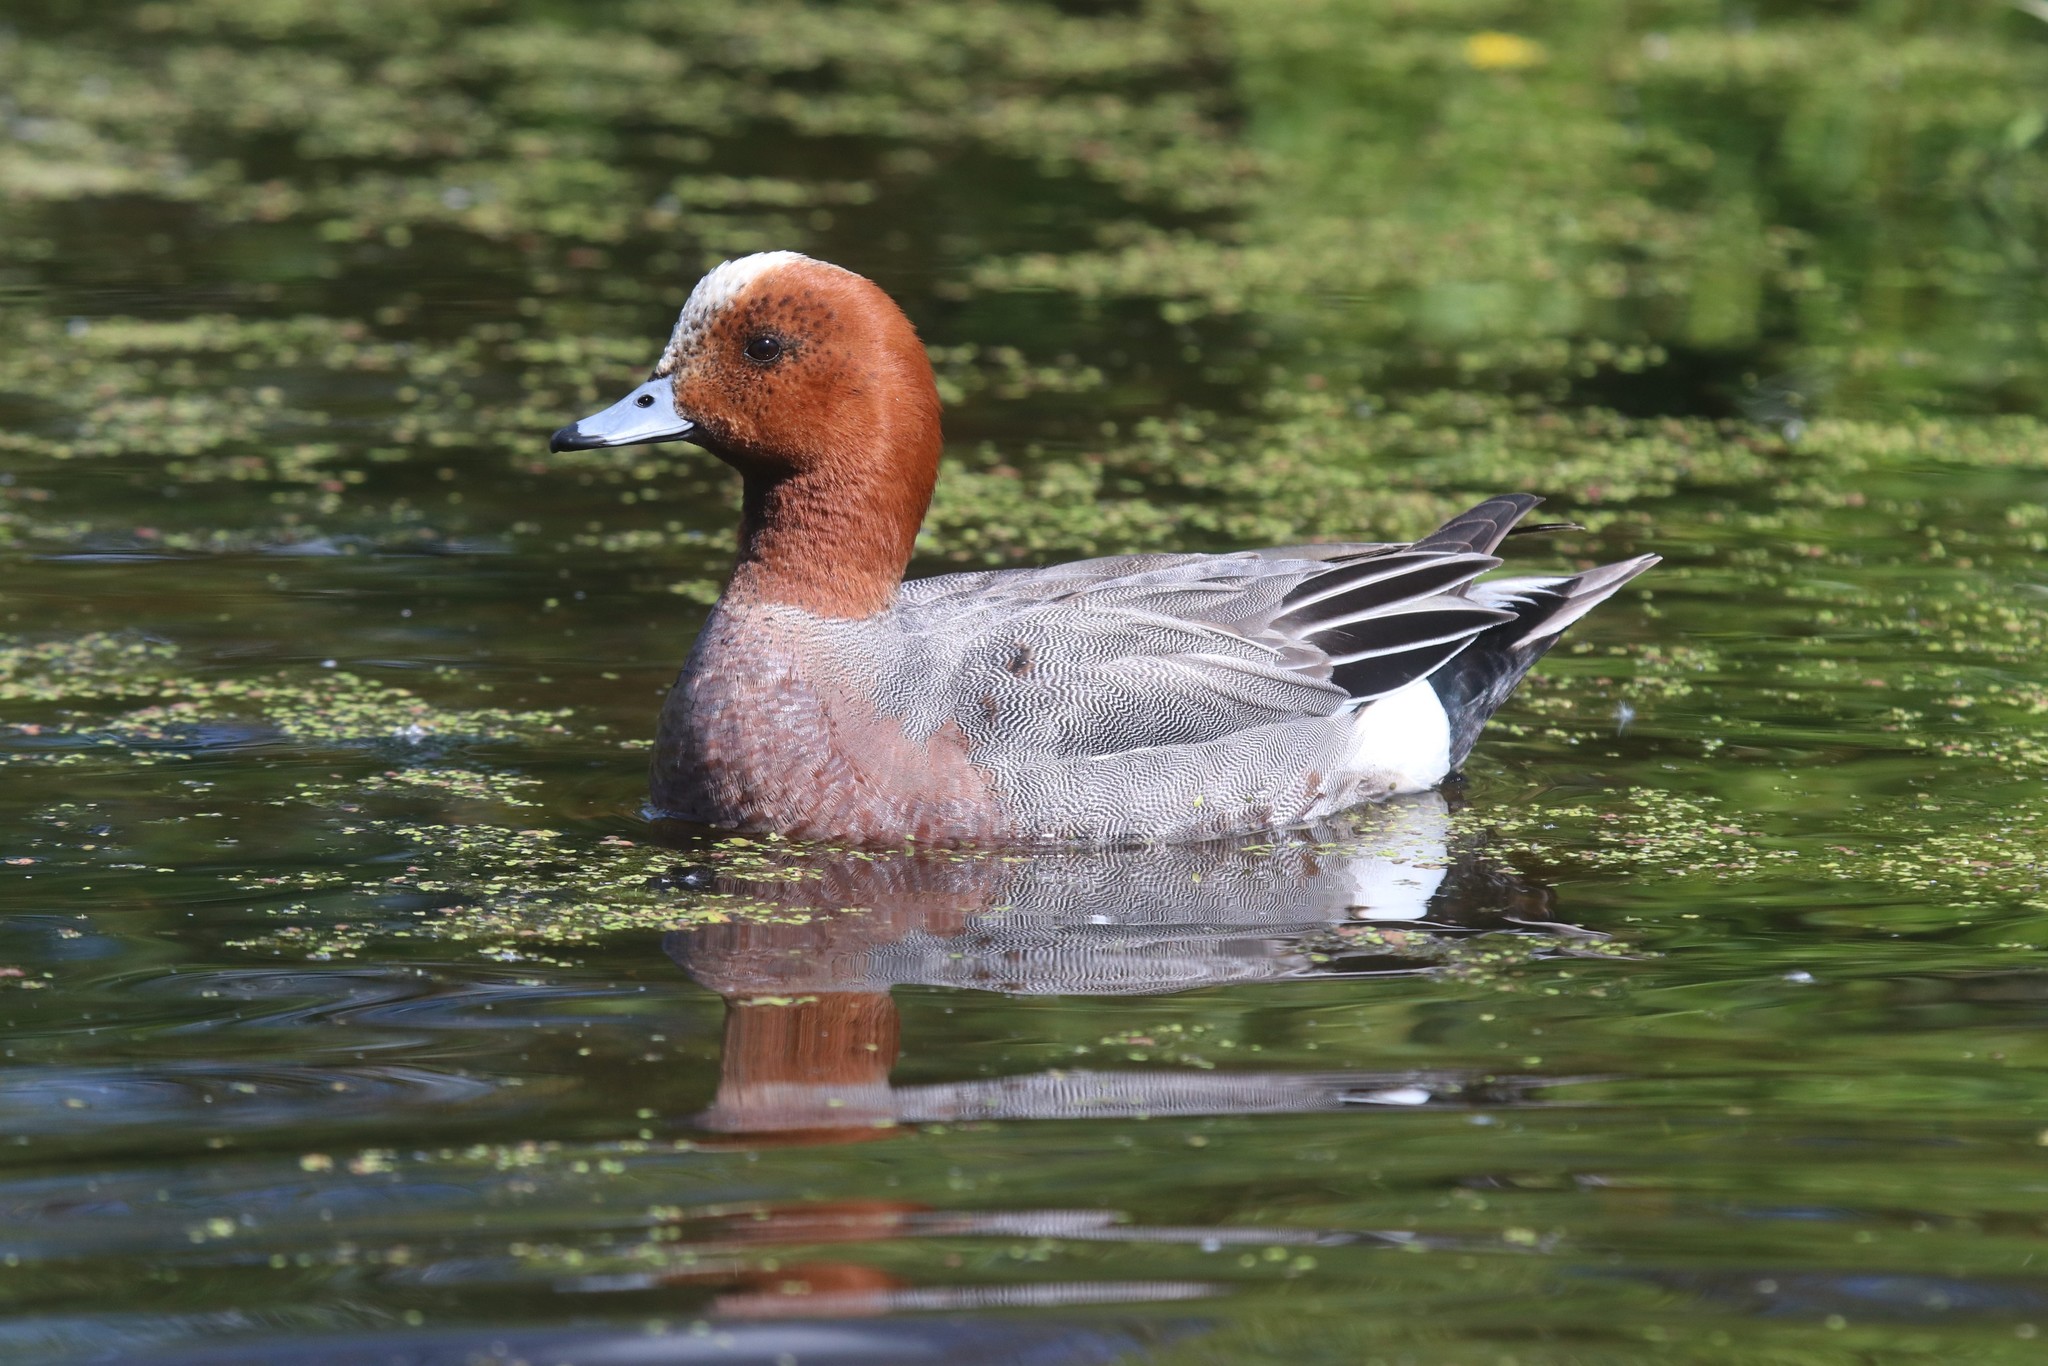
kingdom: Animalia
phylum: Chordata
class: Aves
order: Anseriformes
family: Anatidae
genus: Mareca
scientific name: Mareca penelope
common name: Eurasian wigeon
